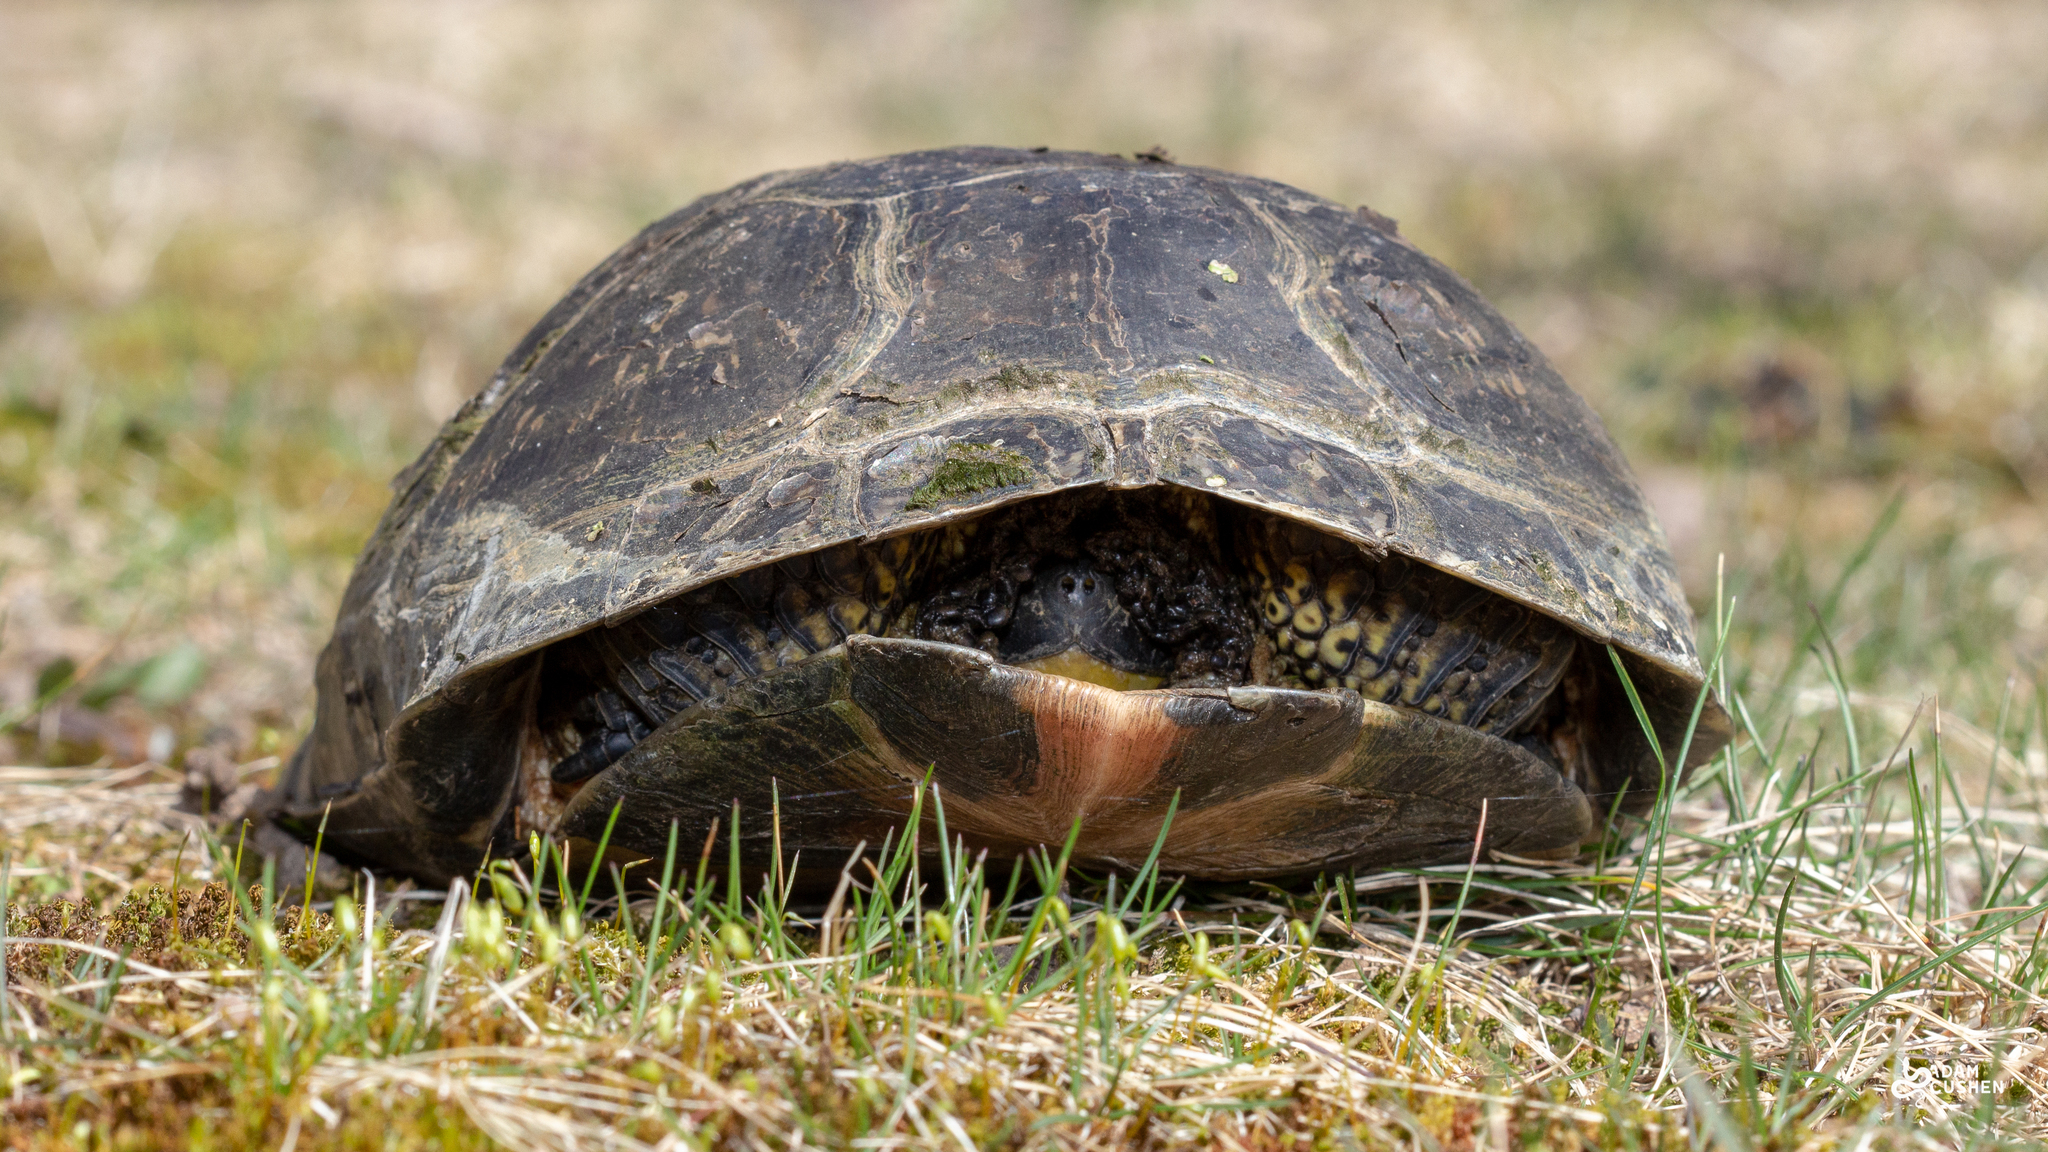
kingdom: Animalia
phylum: Chordata
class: Testudines
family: Emydidae
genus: Emys
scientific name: Emys blandingii
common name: Blanding's turtle
